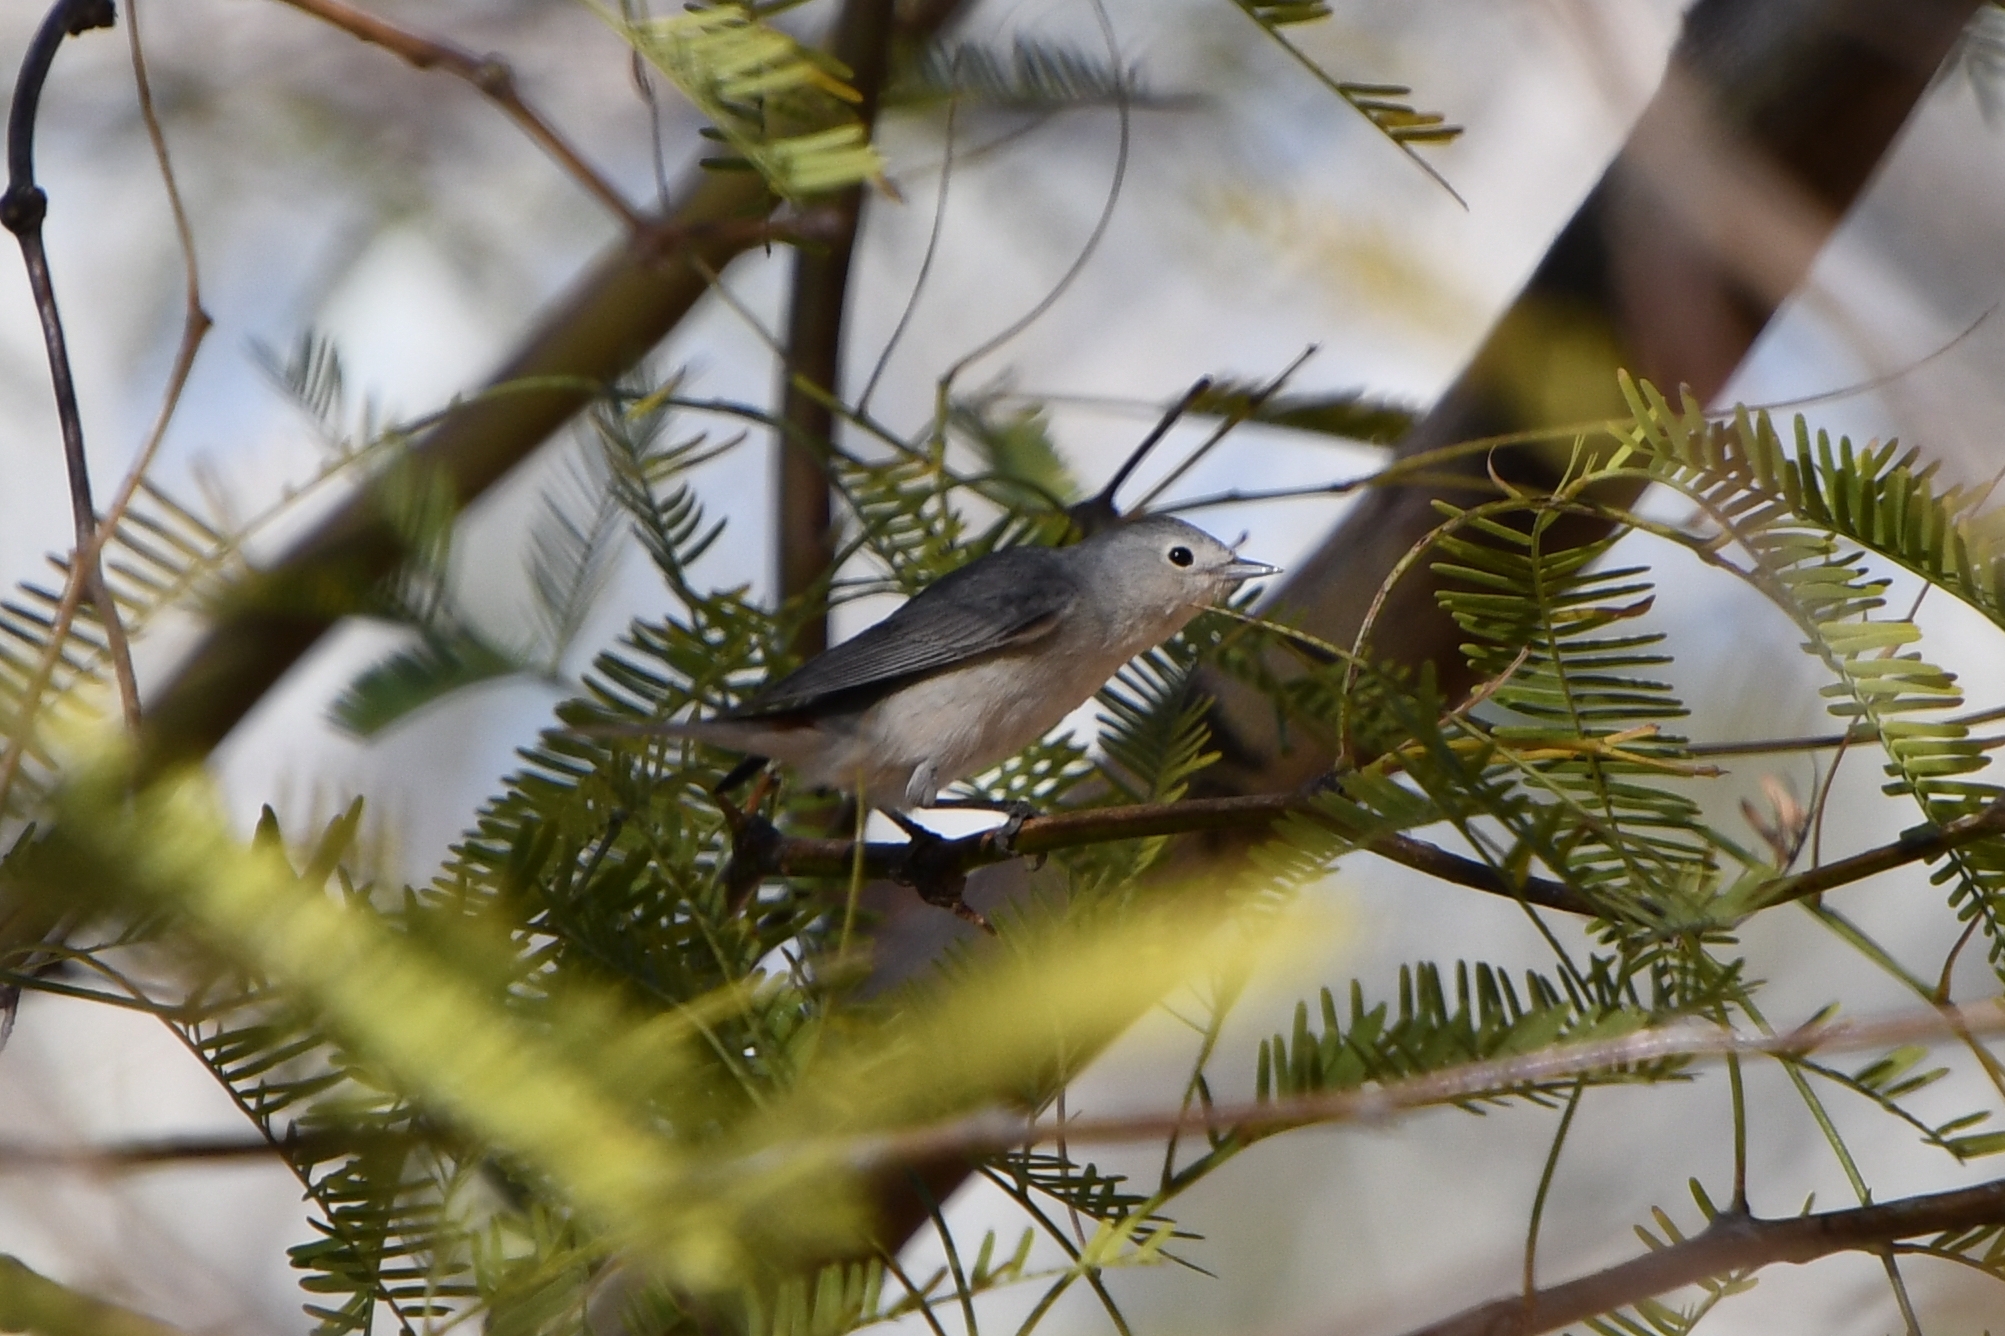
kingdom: Animalia
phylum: Chordata
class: Aves
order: Passeriformes
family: Parulidae
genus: Leiothlypis
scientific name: Leiothlypis luciae
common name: Lucy's warbler
